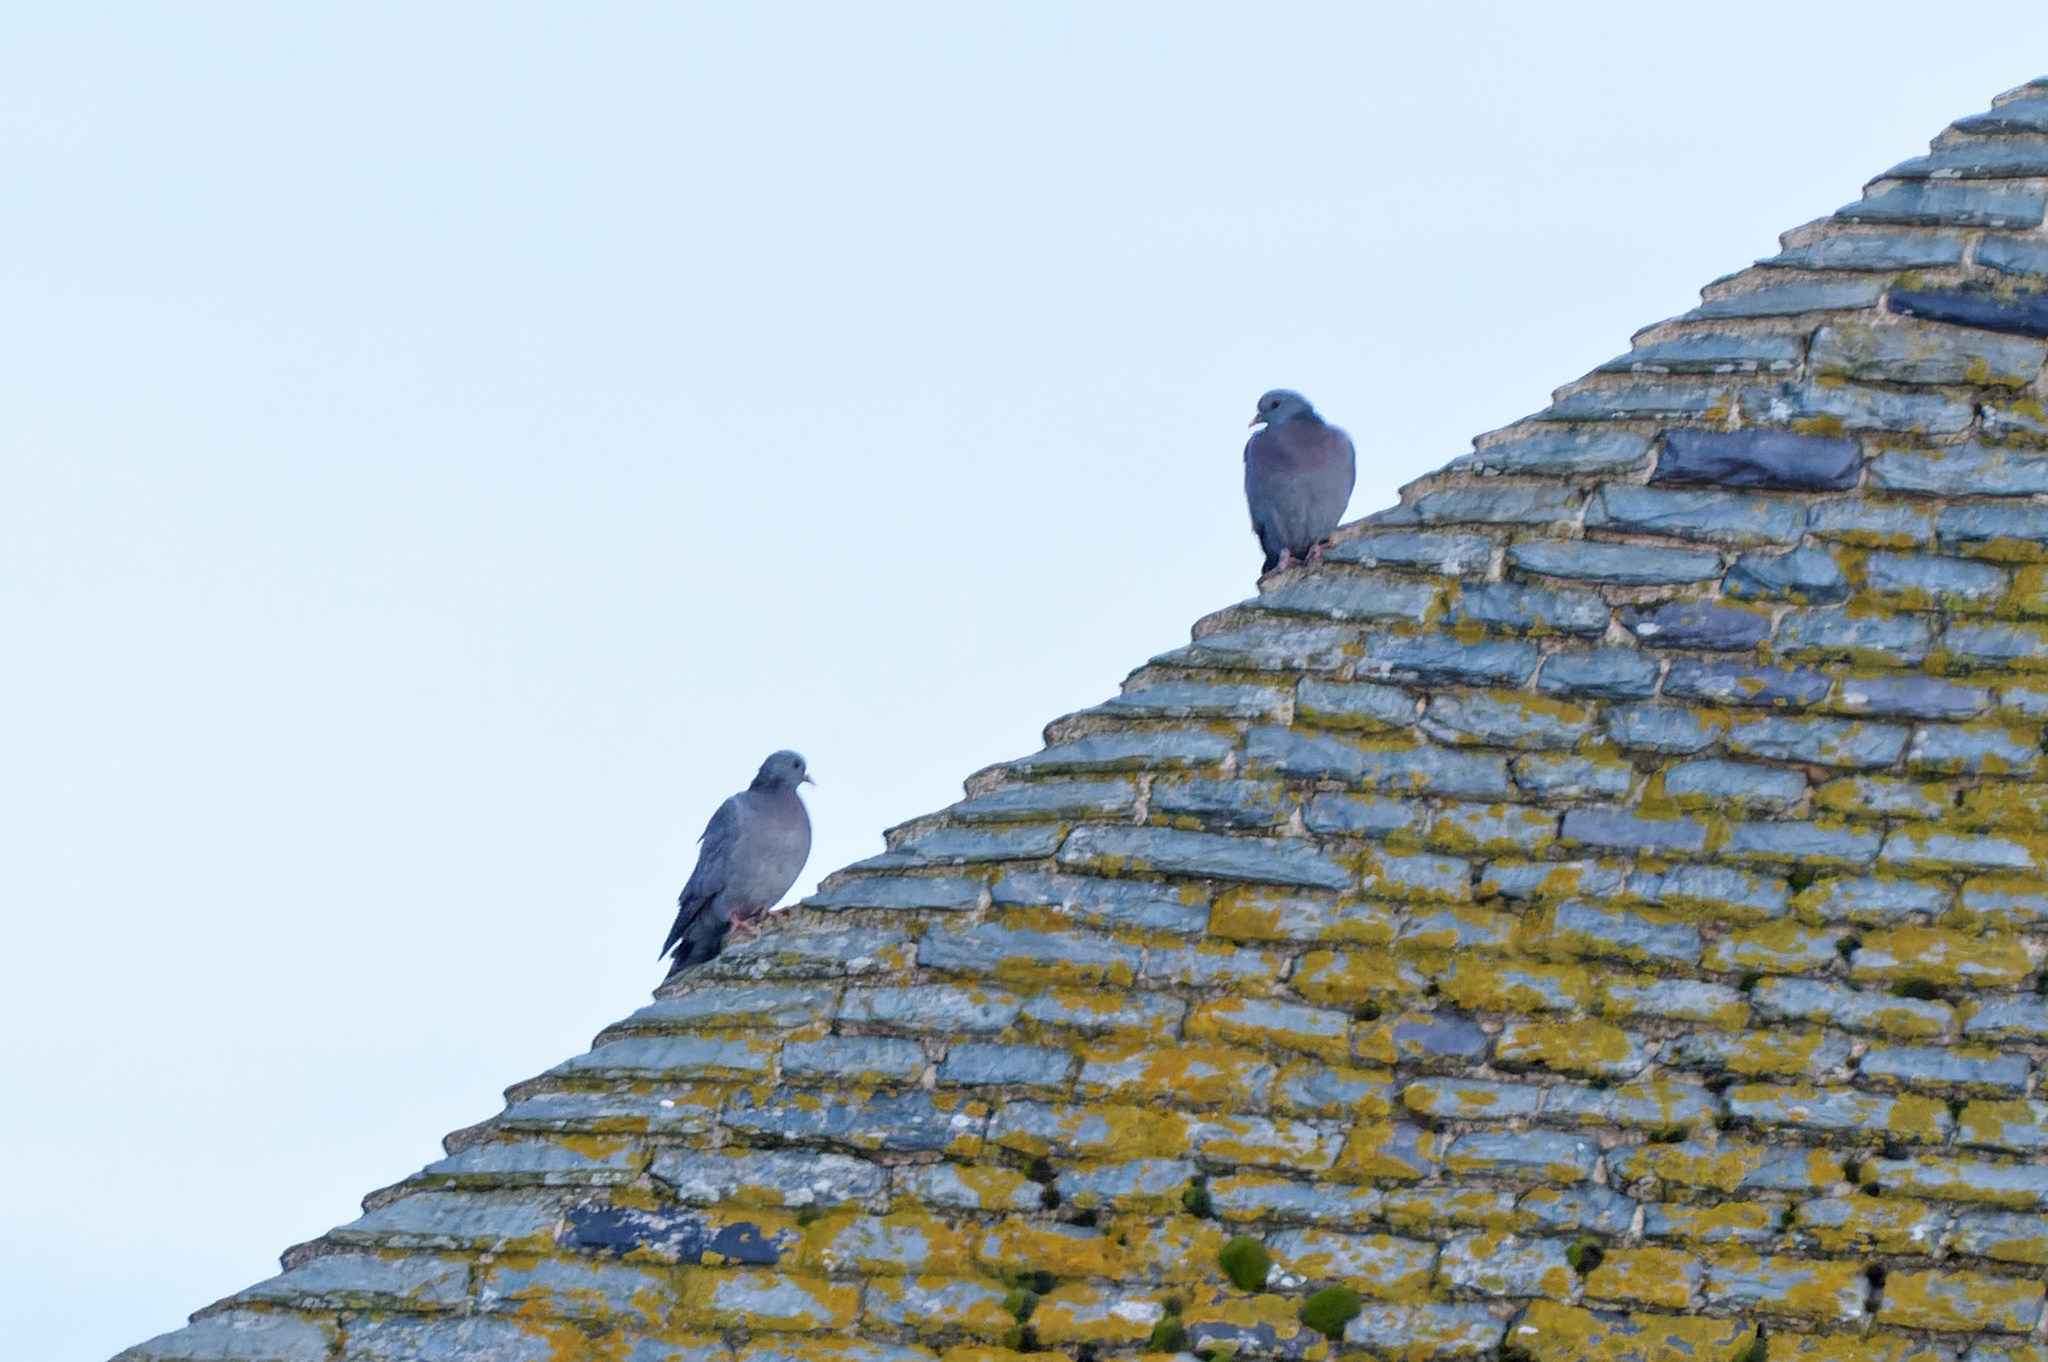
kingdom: Animalia
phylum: Chordata
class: Aves
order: Columbiformes
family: Columbidae
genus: Columba
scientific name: Columba oenas
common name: Stock dove
